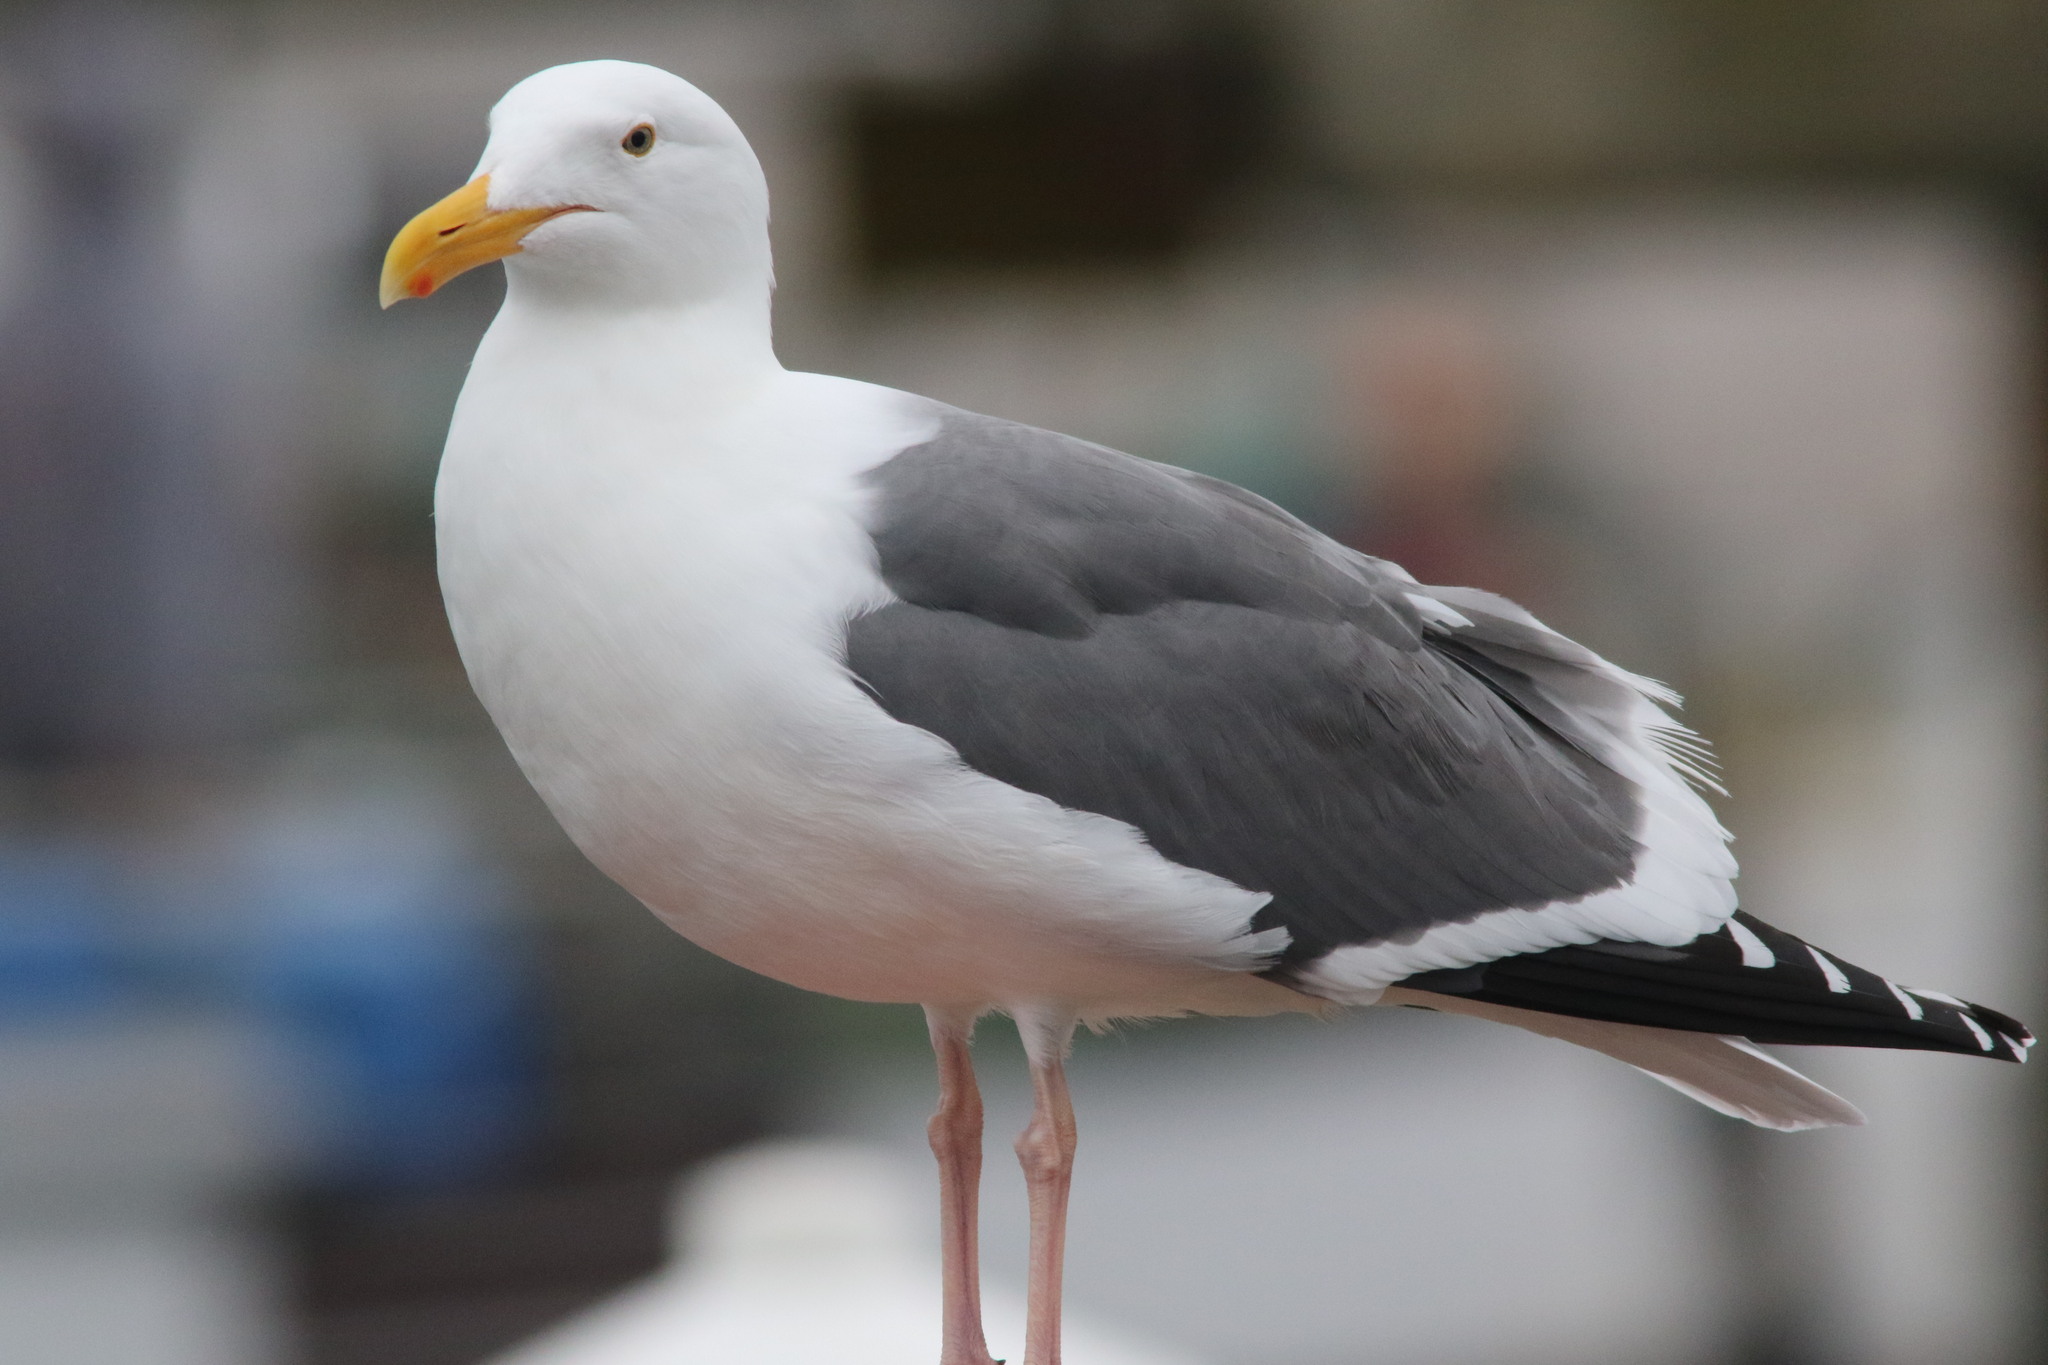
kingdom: Animalia
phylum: Chordata
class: Aves
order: Charadriiformes
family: Laridae
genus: Larus
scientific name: Larus occidentalis
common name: Western gull
